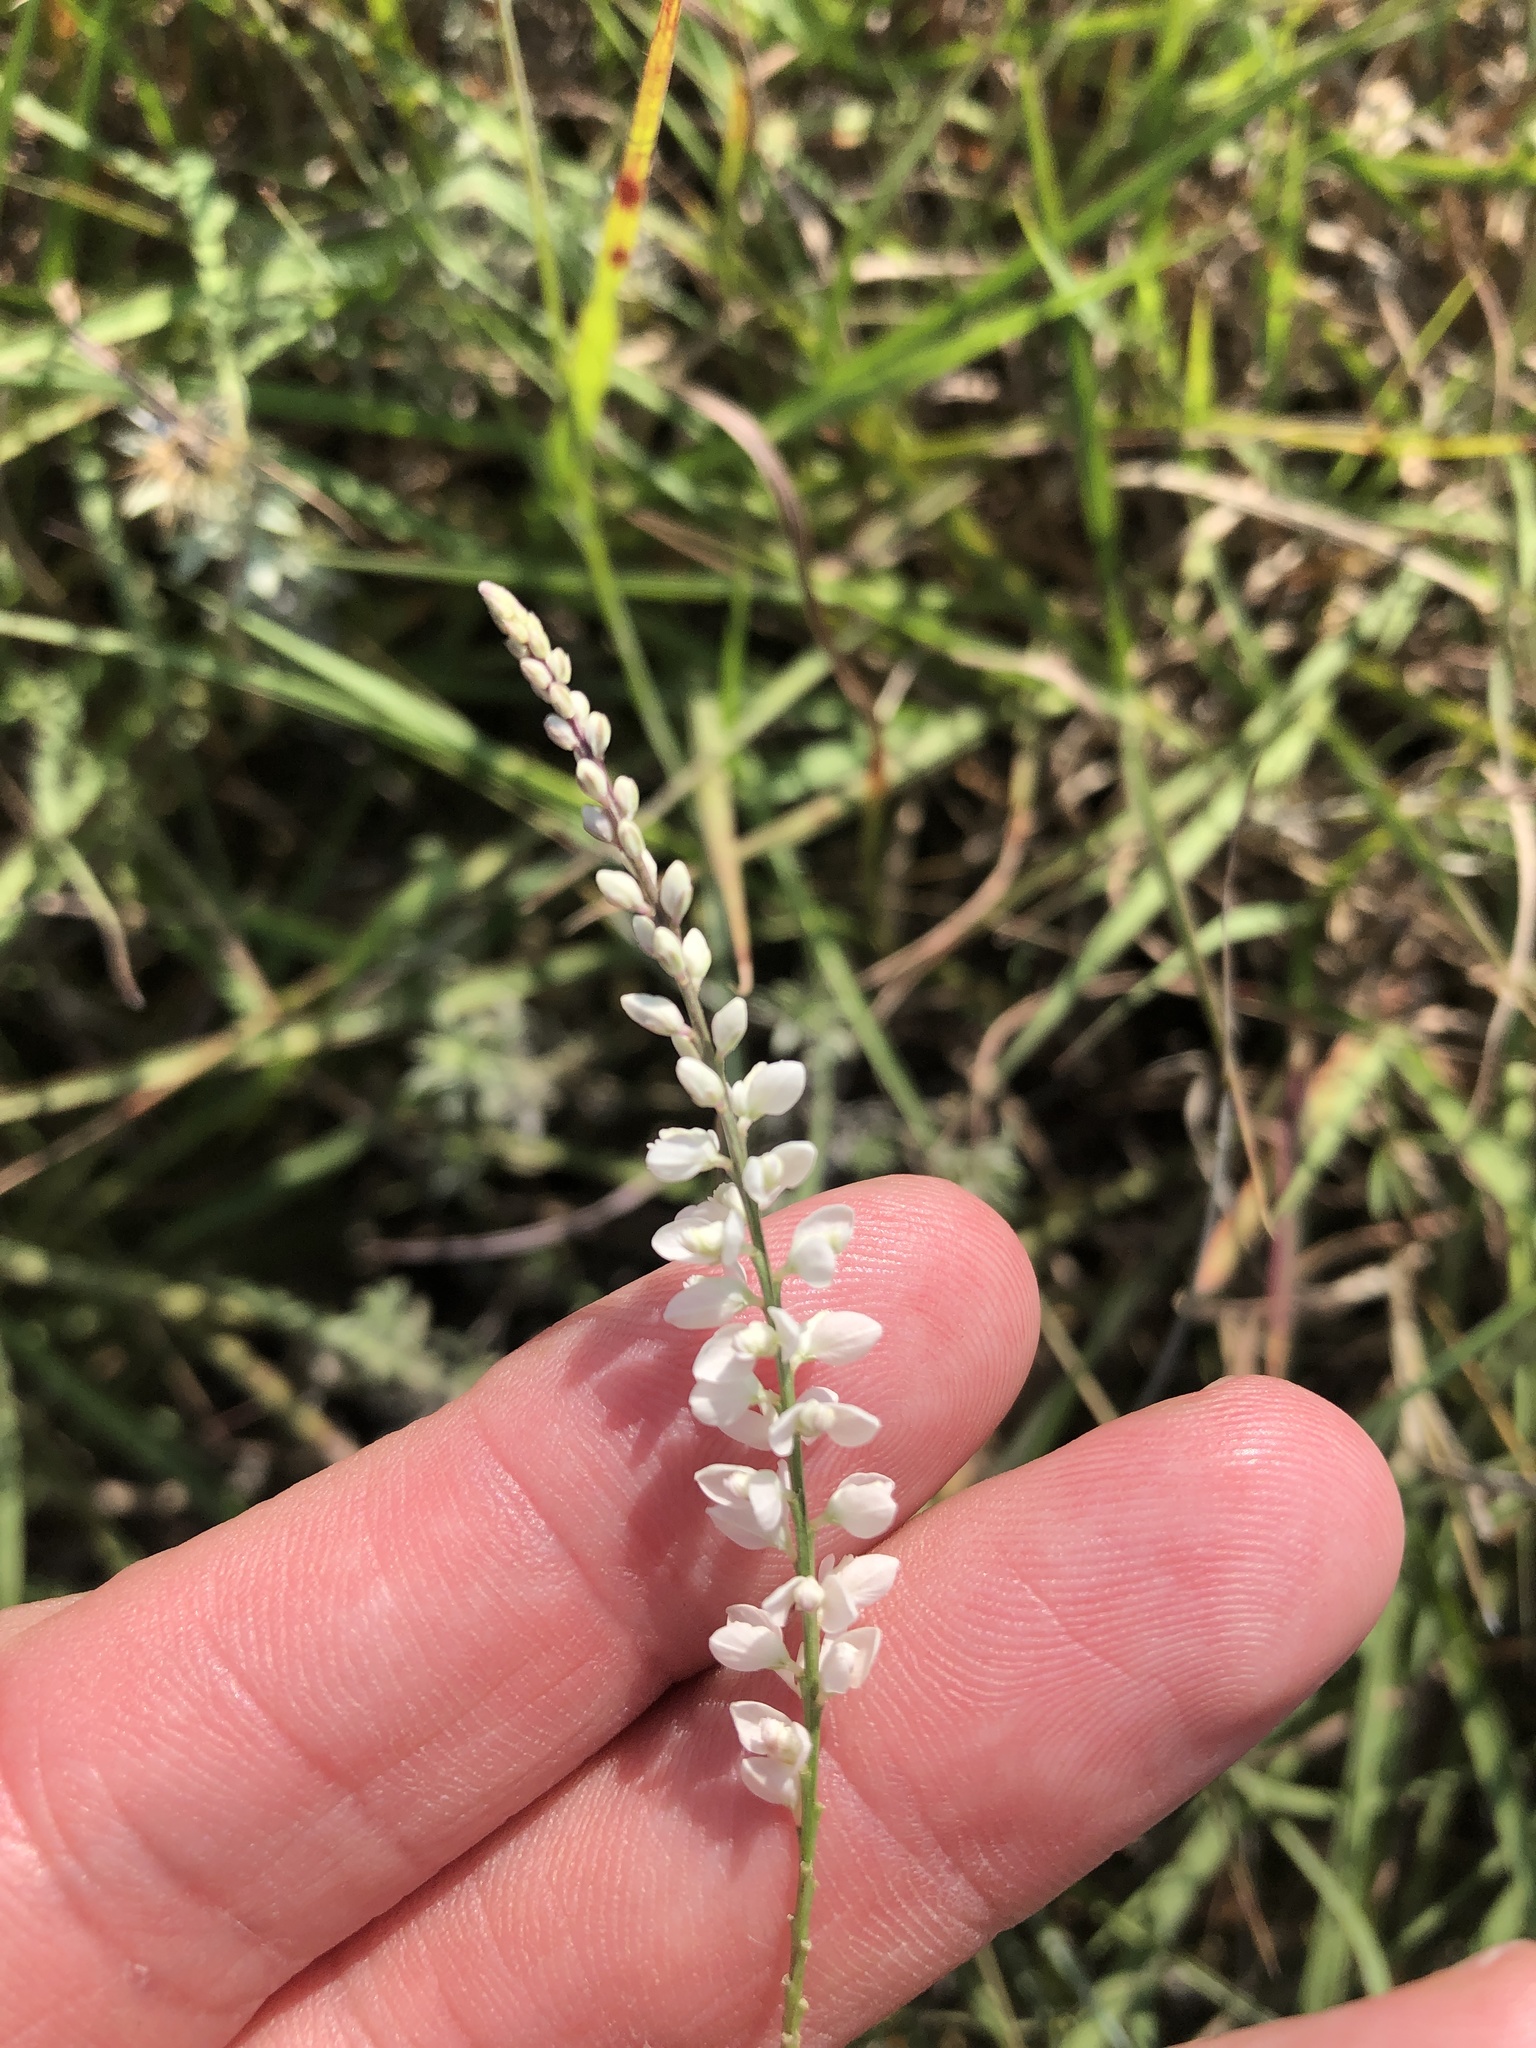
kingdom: Plantae
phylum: Tracheophyta
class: Magnoliopsida
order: Fabales
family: Polygalaceae
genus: Polygala
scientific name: Polygala alba
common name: White milkwort
